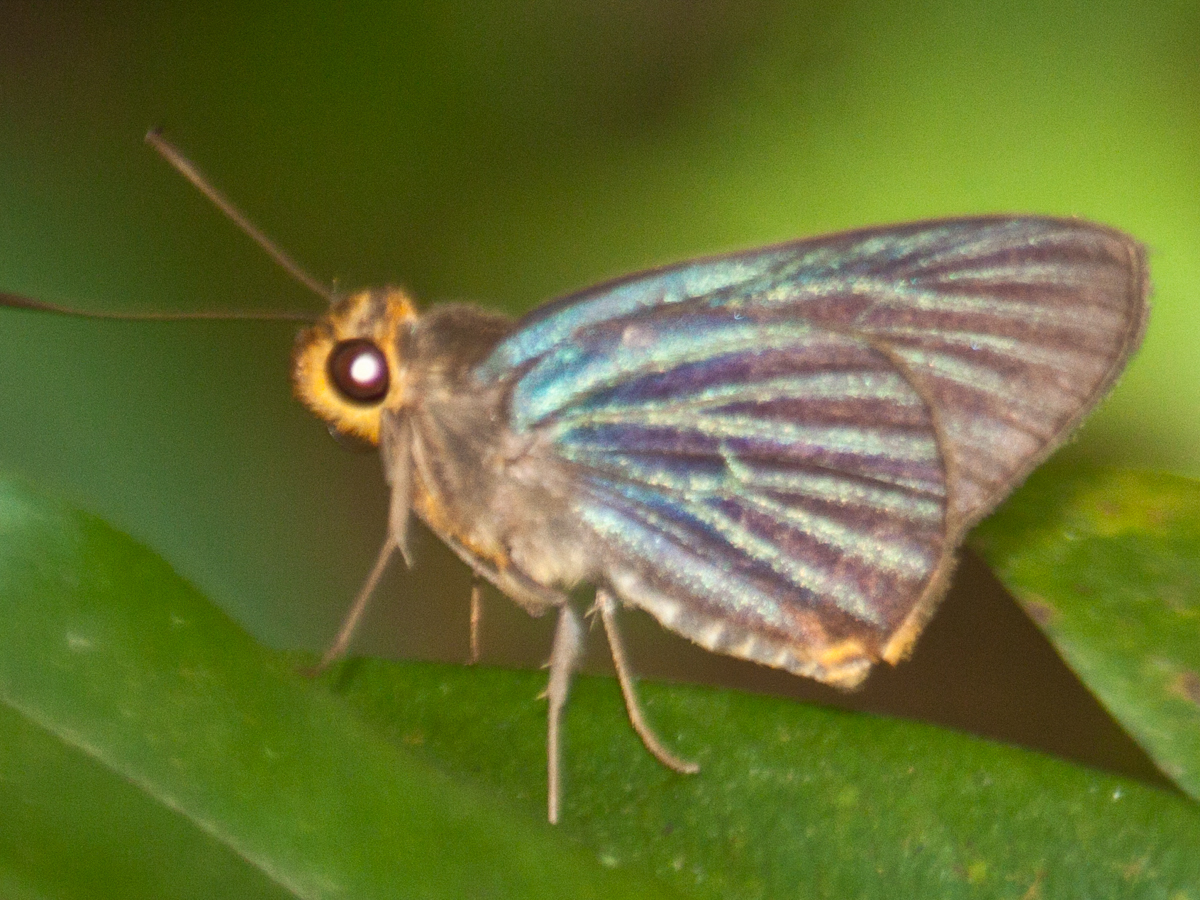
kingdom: Animalia
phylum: Arthropoda
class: Insecta
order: Lepidoptera
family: Hesperiidae
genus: Pirdana
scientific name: Pirdana hyela
